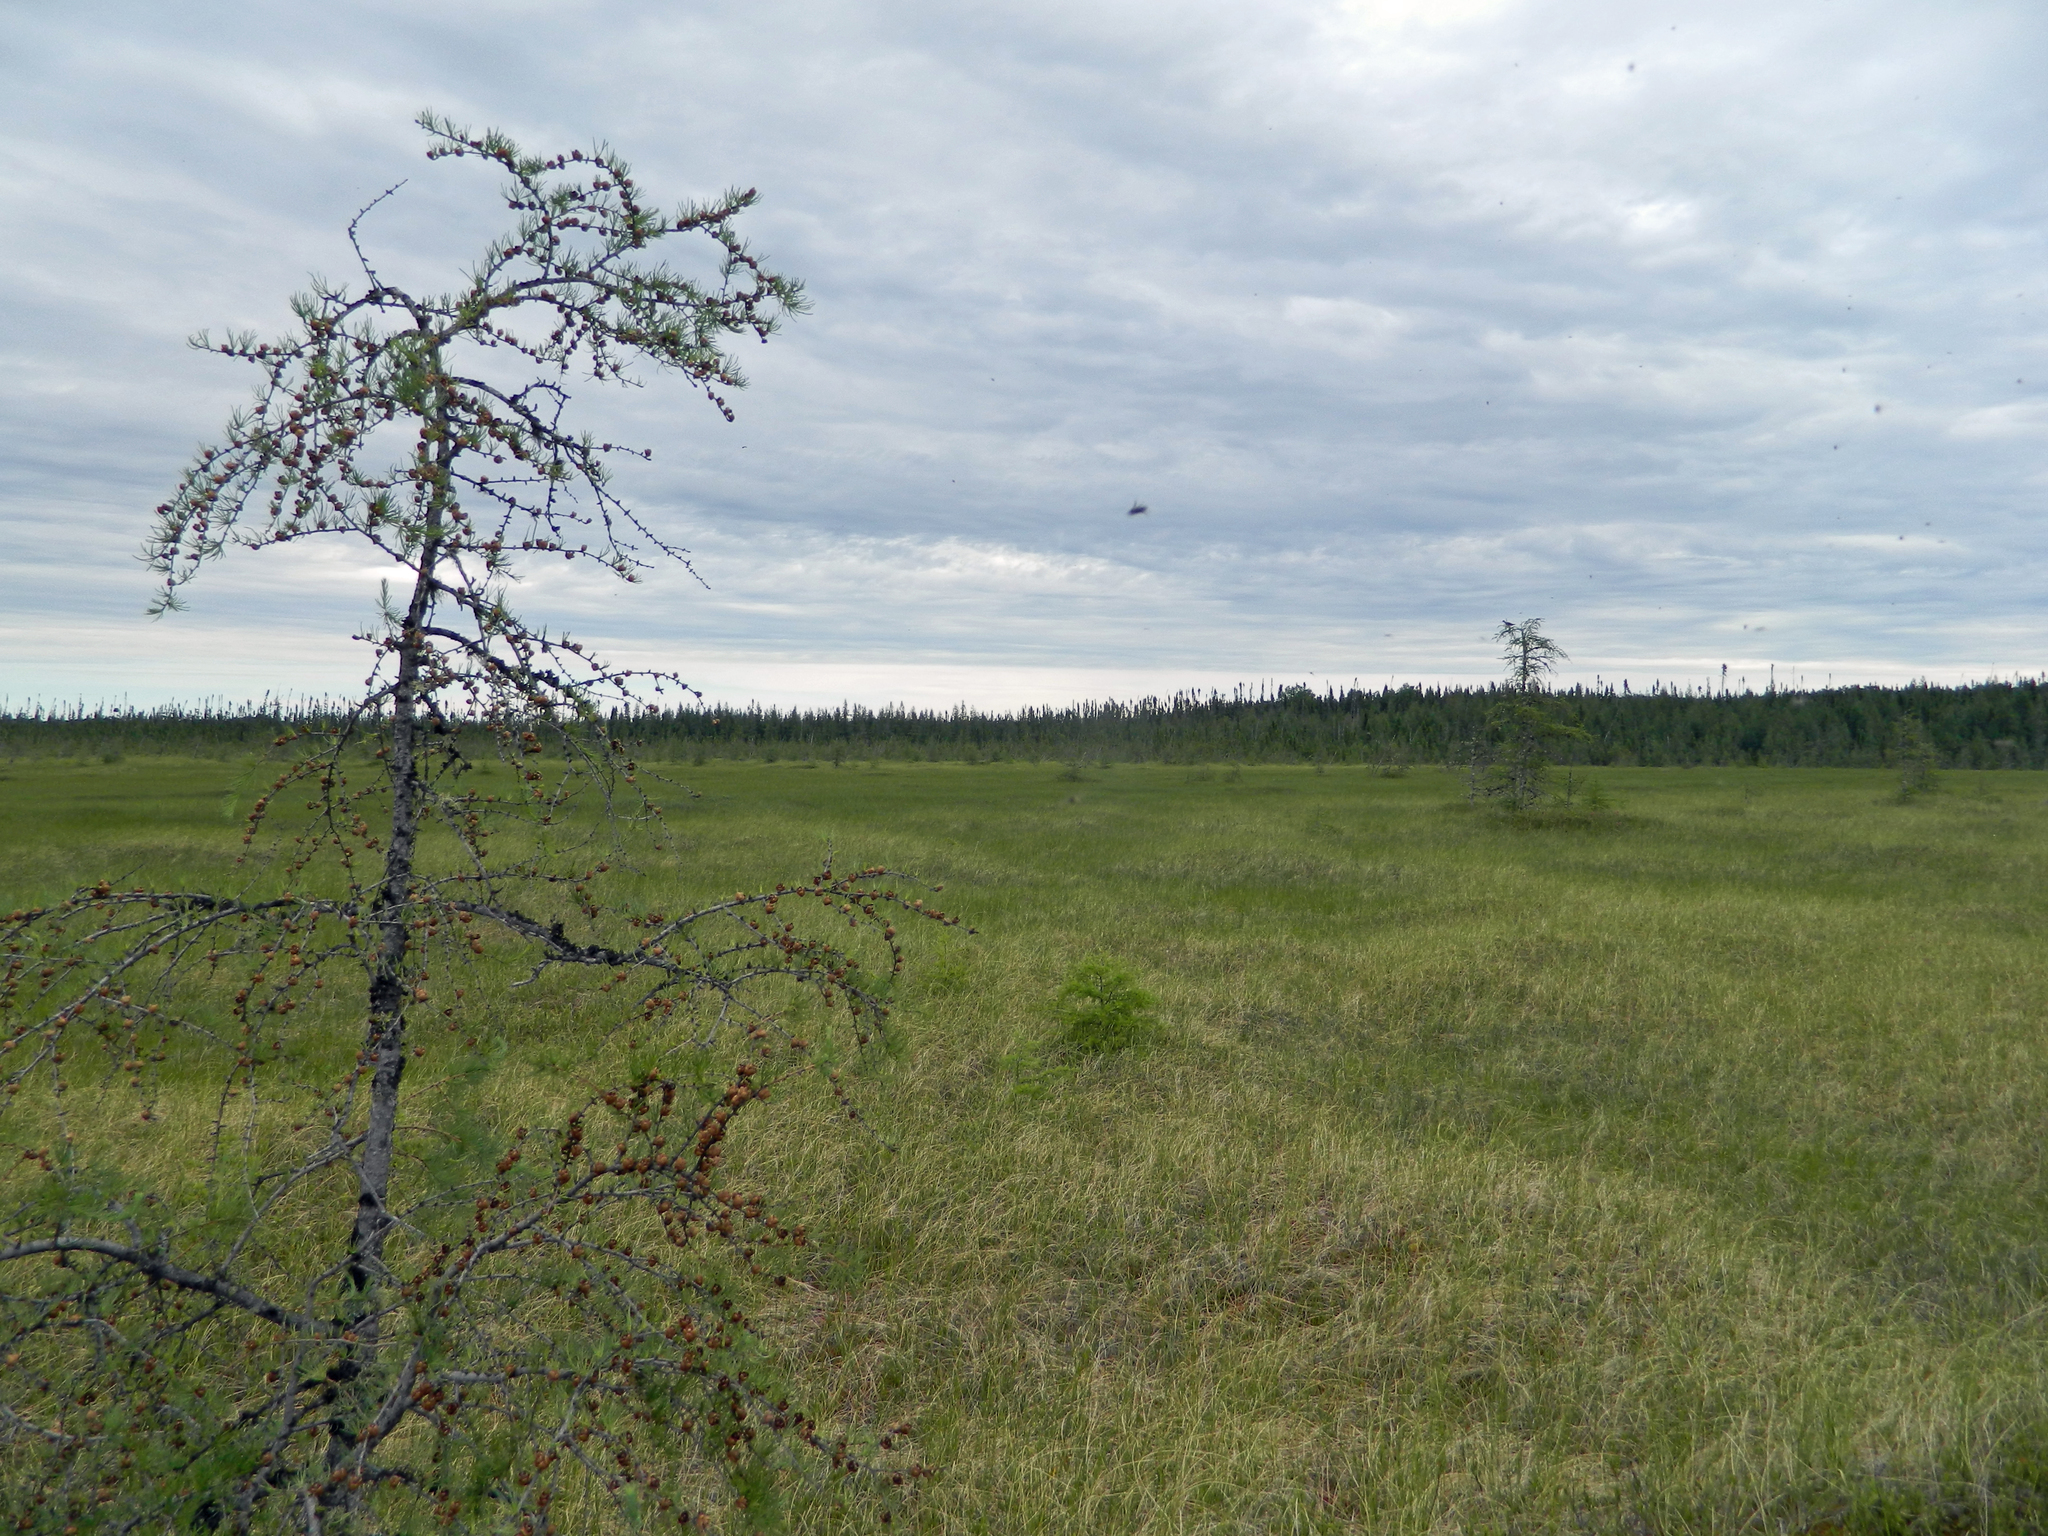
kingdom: Plantae
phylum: Tracheophyta
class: Pinopsida
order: Pinales
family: Pinaceae
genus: Larix
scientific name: Larix laricina
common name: American larch
